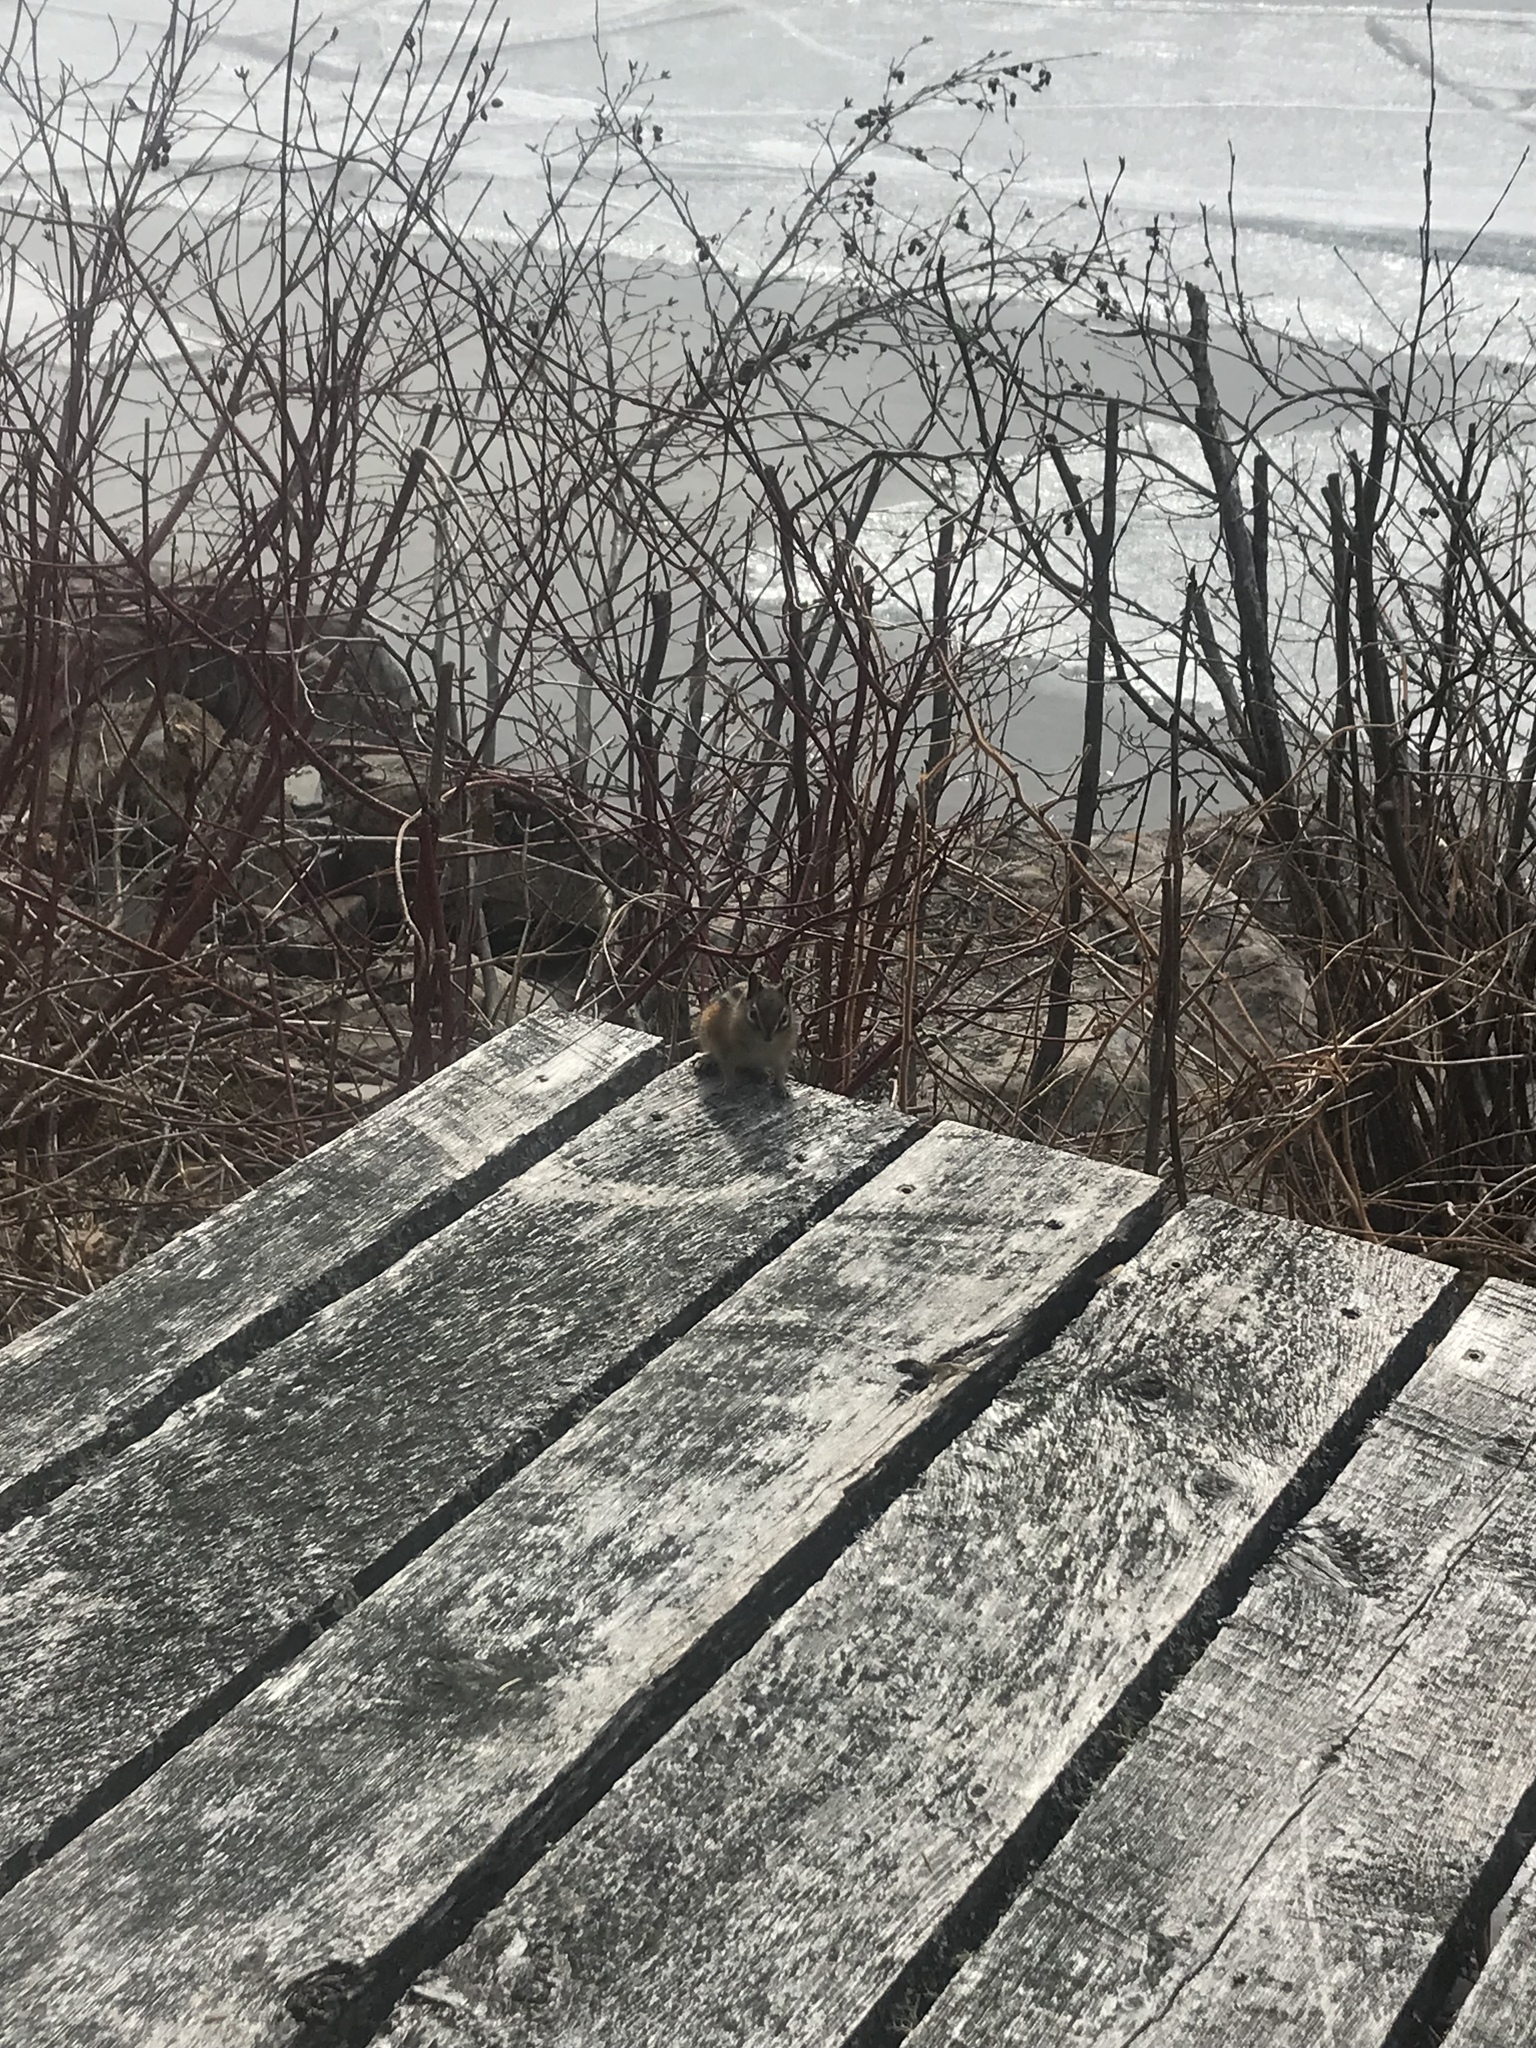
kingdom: Animalia
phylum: Chordata
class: Mammalia
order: Rodentia
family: Sciuridae
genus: Tamias
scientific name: Tamias minimus
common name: Least chipmunk
